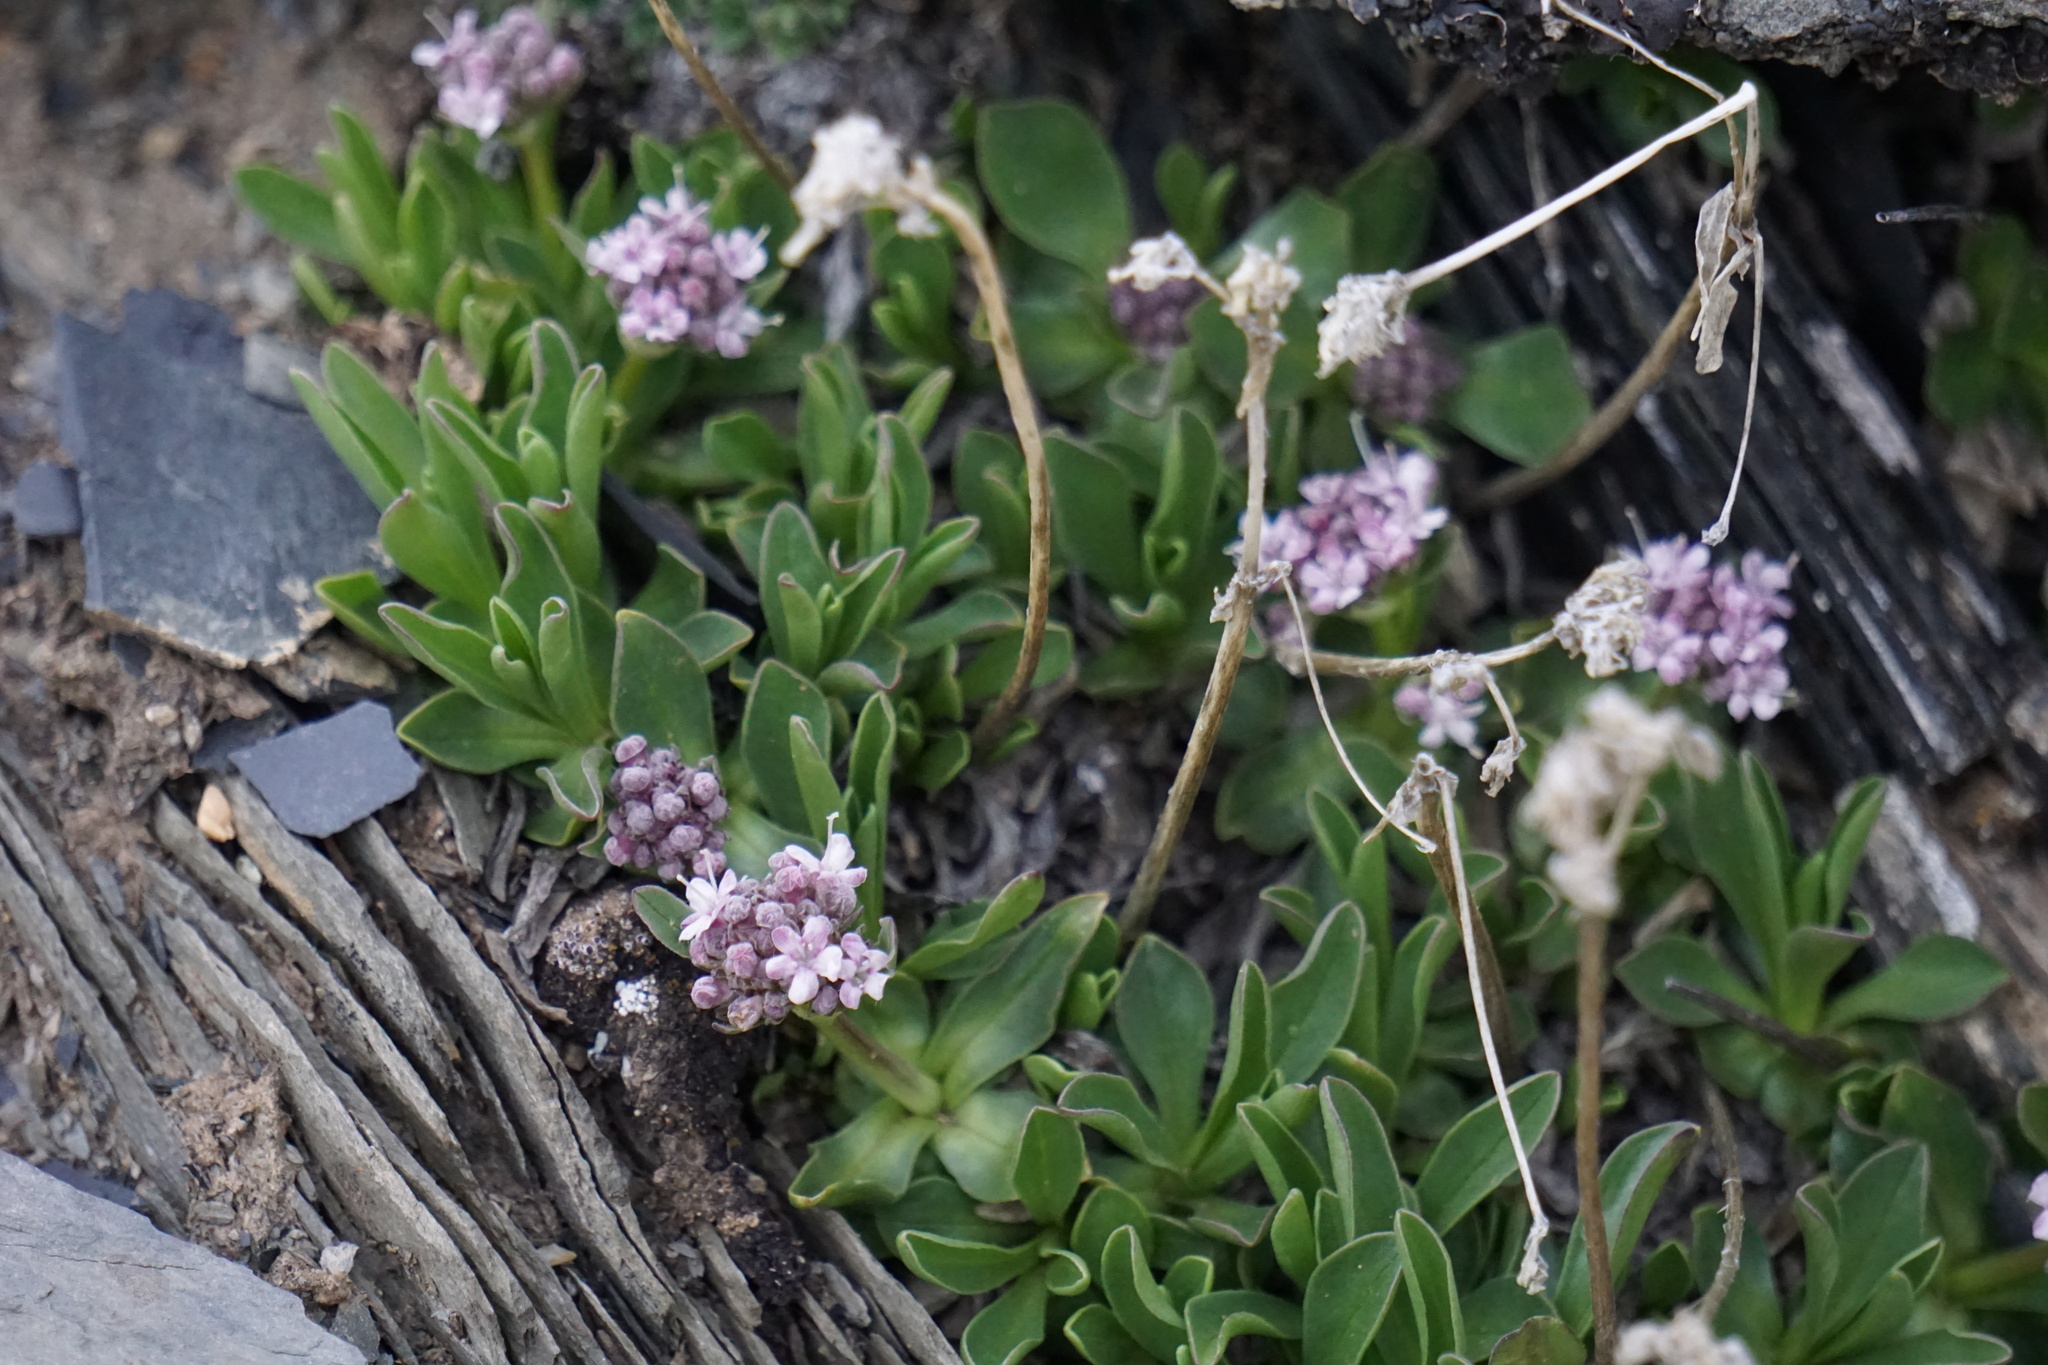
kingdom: Plantae
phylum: Tracheophyta
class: Magnoliopsida
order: Dipsacales
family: Caprifoliaceae
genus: Valeriana
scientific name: Valeriana saliunca
